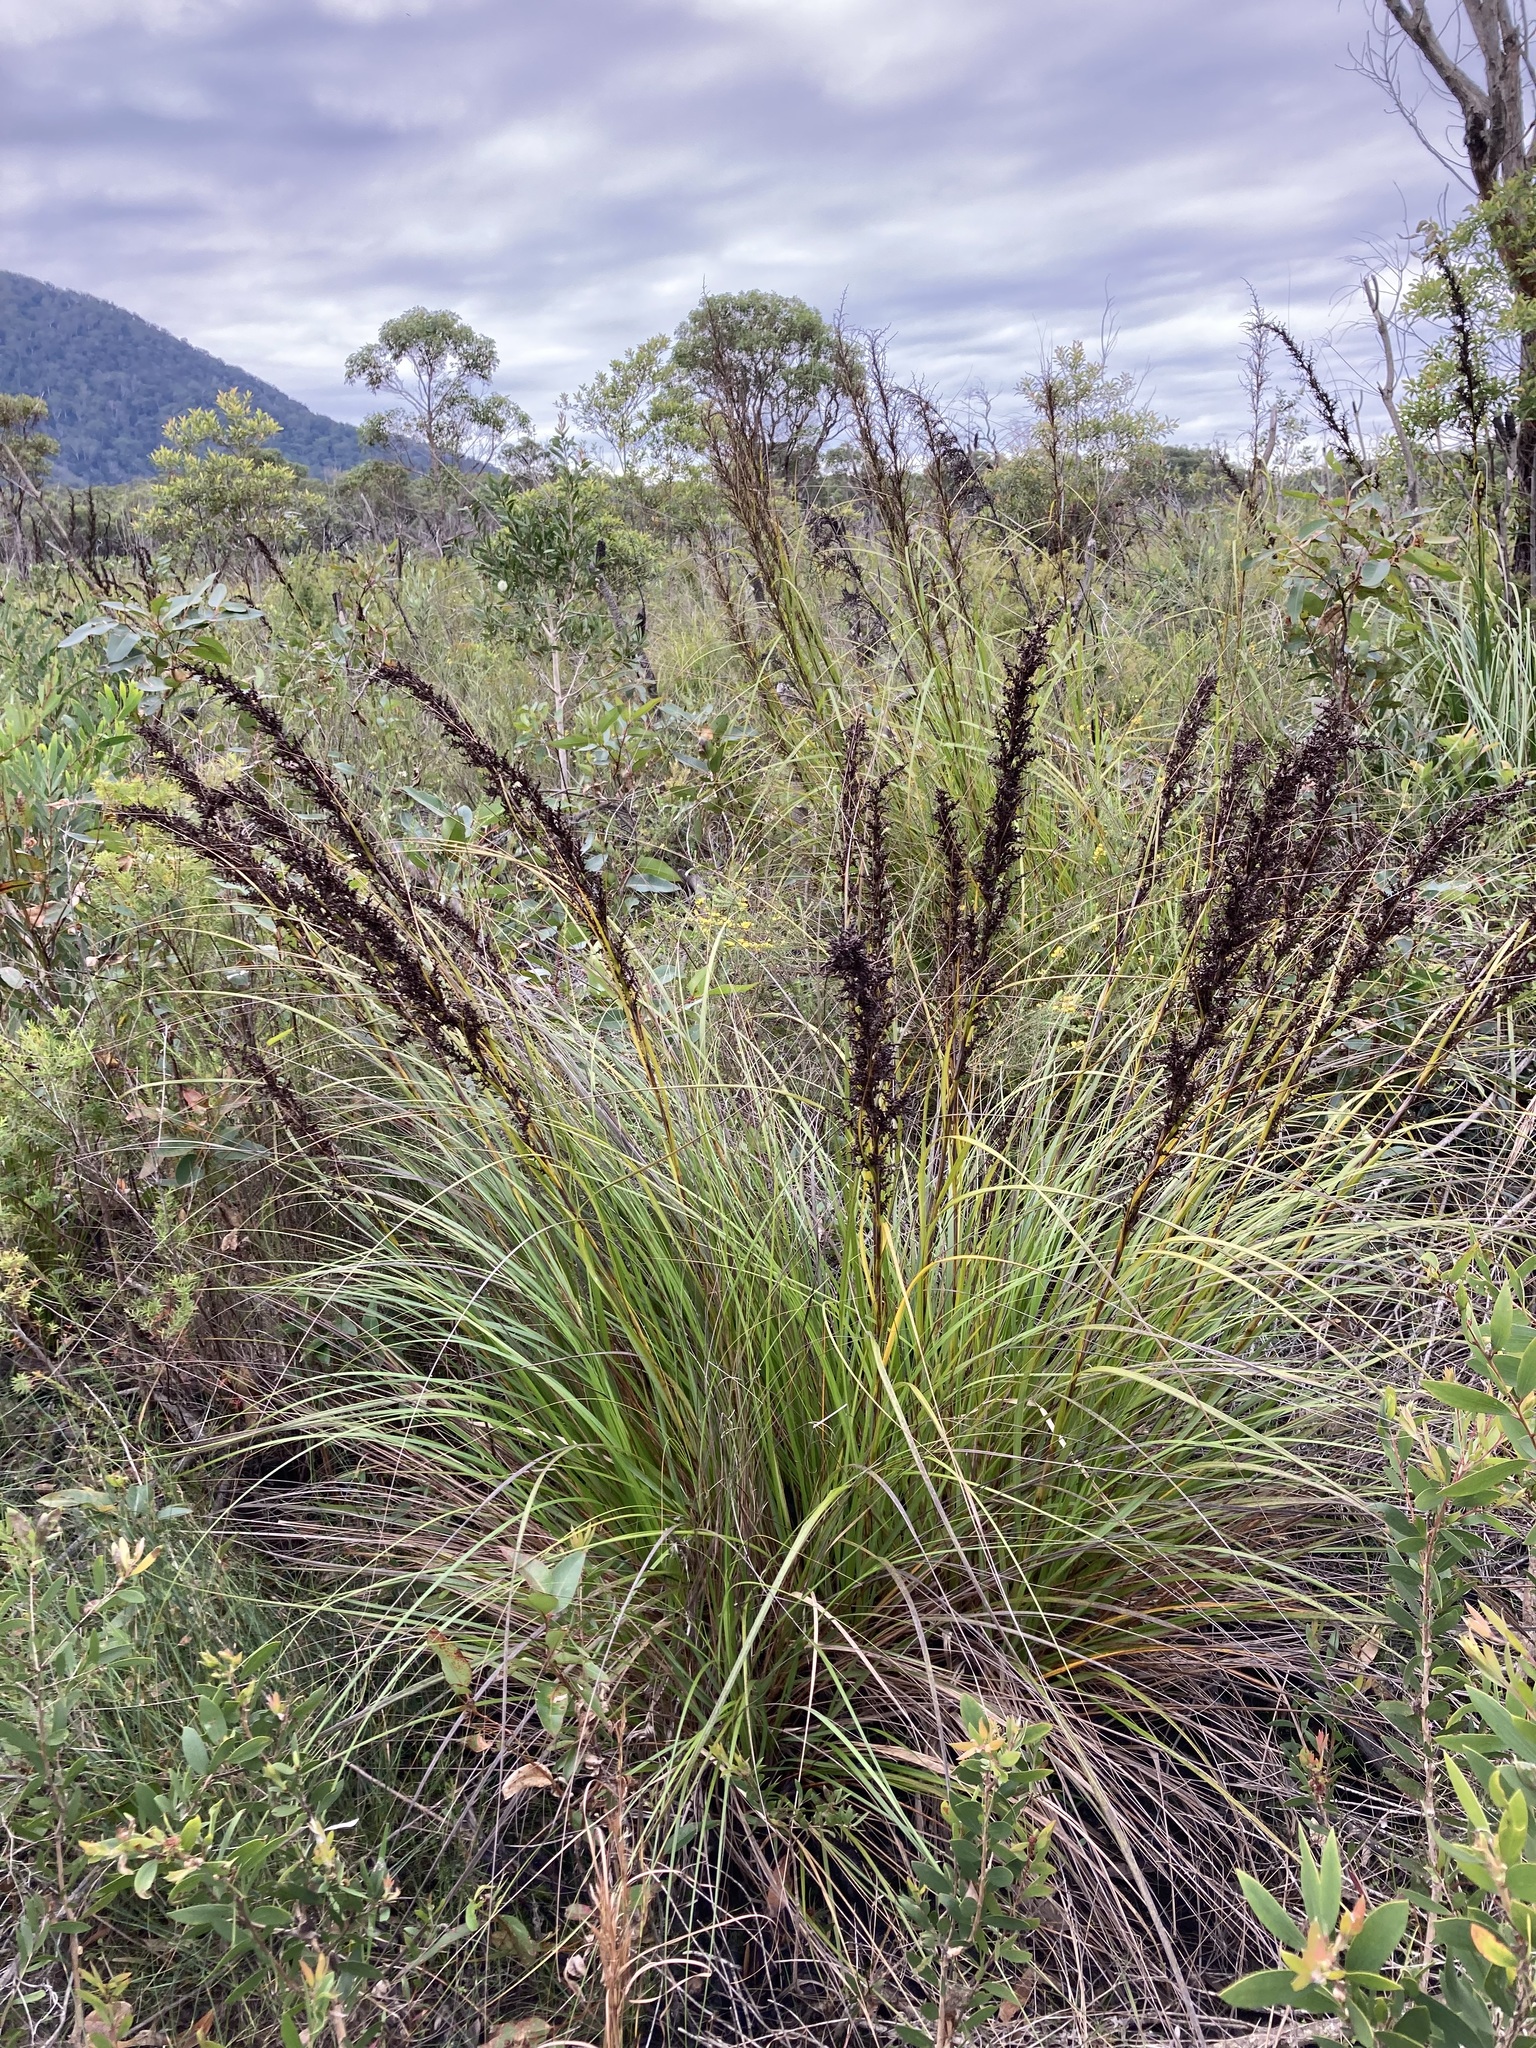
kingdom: Plantae
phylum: Tracheophyta
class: Liliopsida
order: Poales
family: Cyperaceae
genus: Gahnia
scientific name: Gahnia sieberiana
